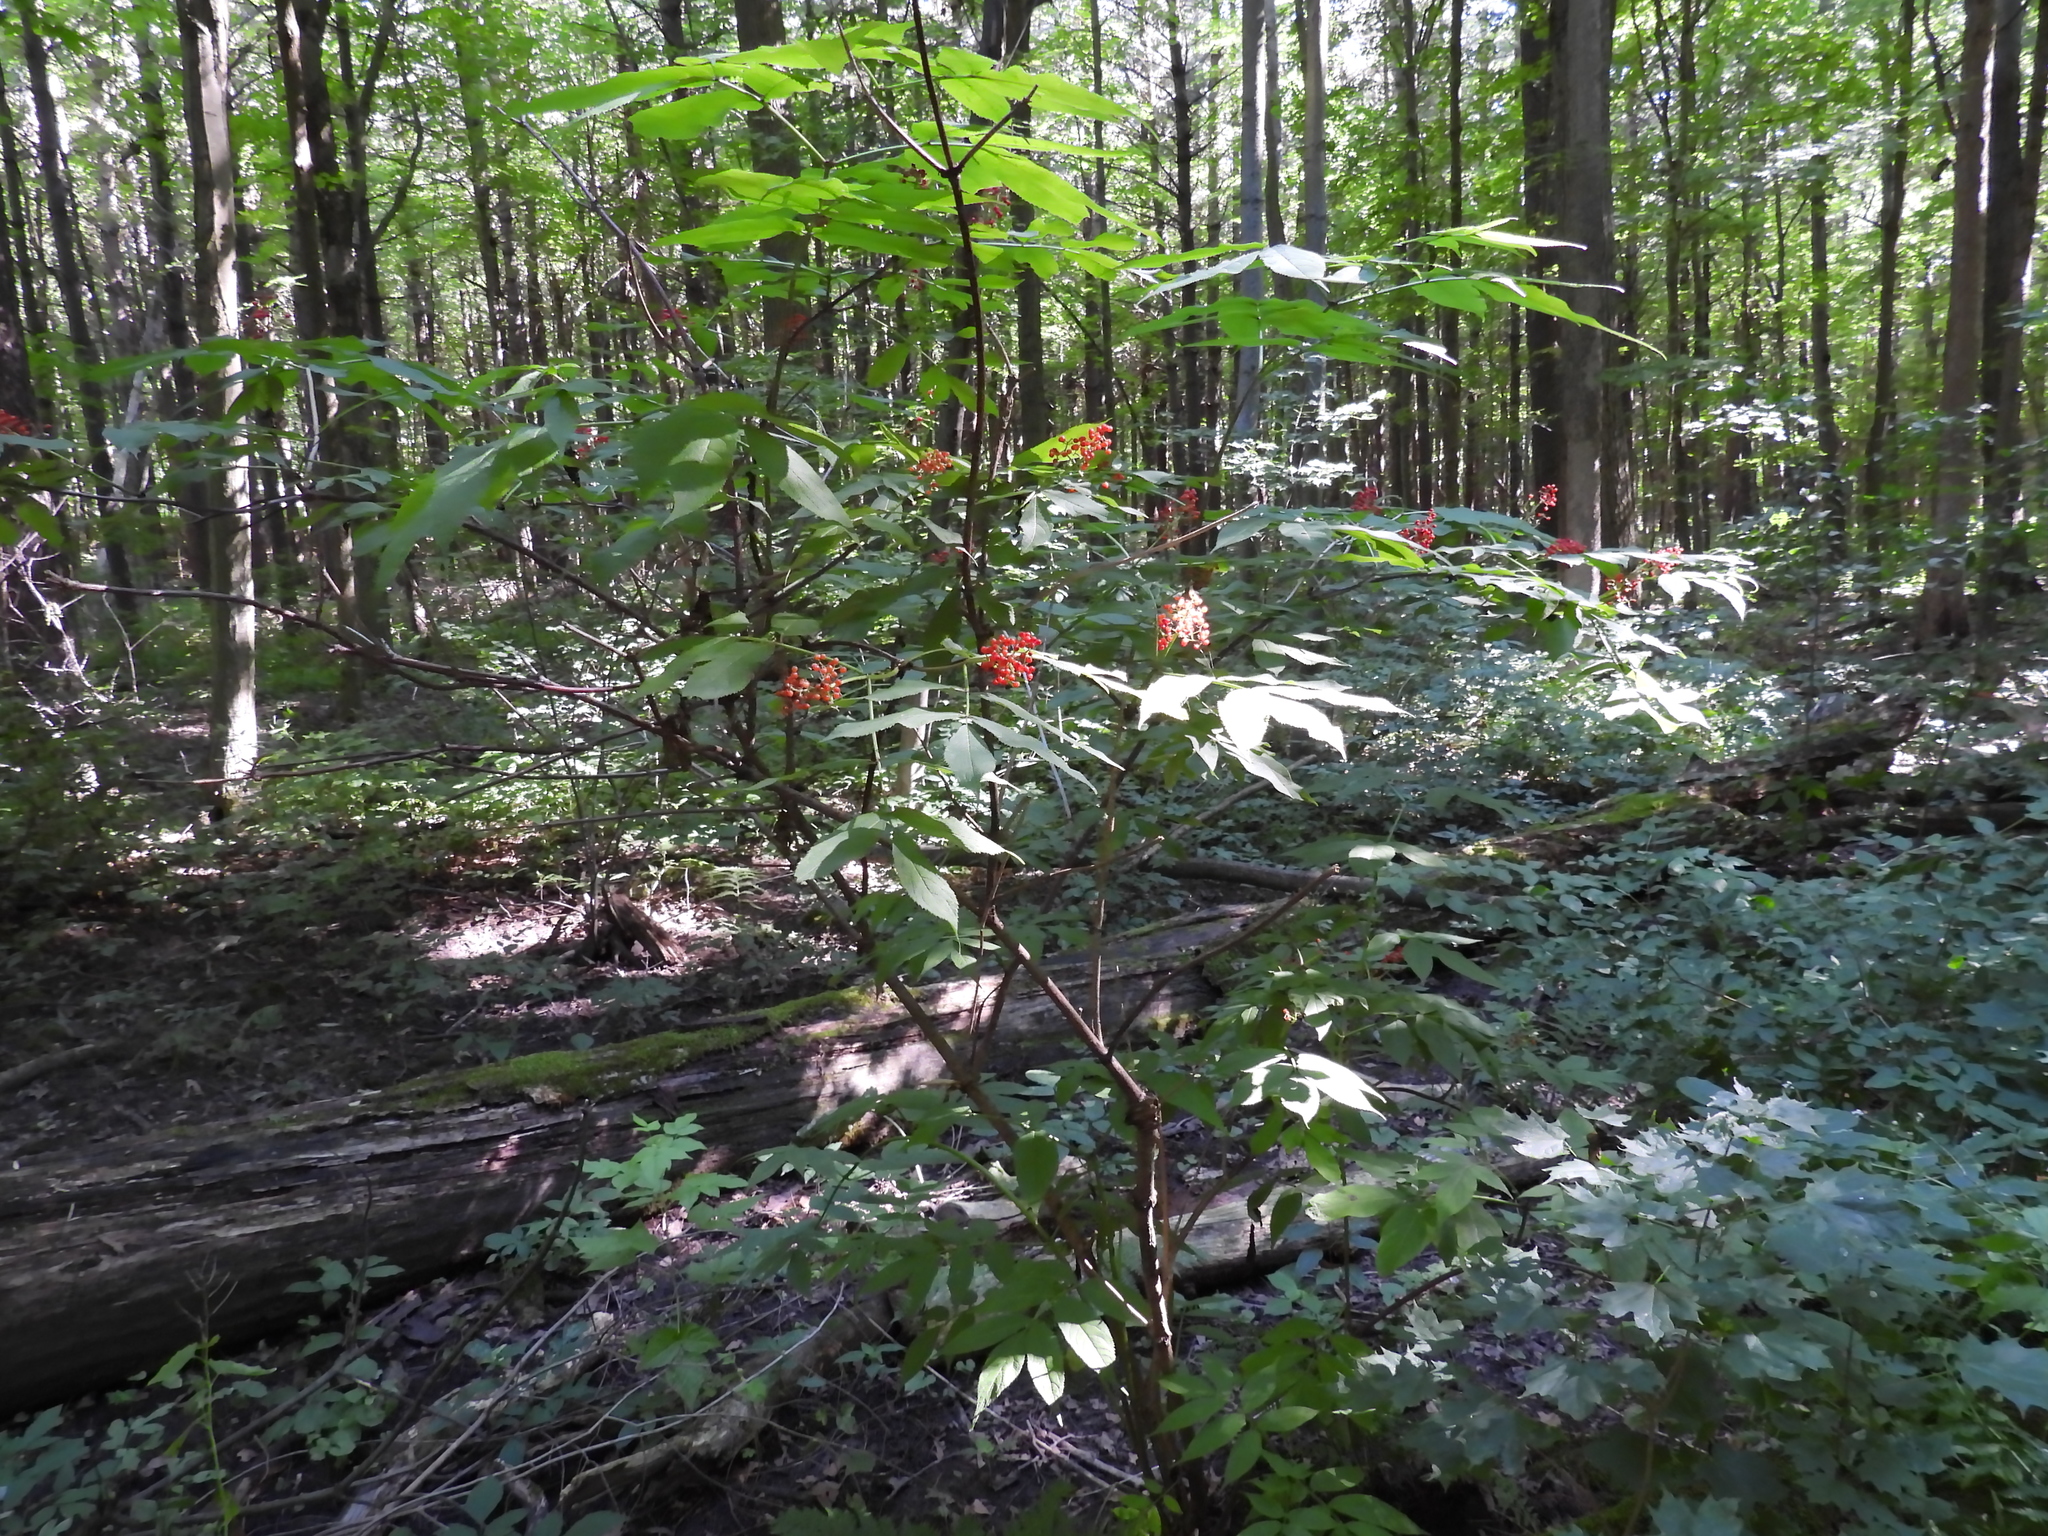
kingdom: Plantae
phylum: Tracheophyta
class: Magnoliopsida
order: Dipsacales
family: Viburnaceae
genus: Sambucus
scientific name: Sambucus racemosa
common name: Red-berried elder
